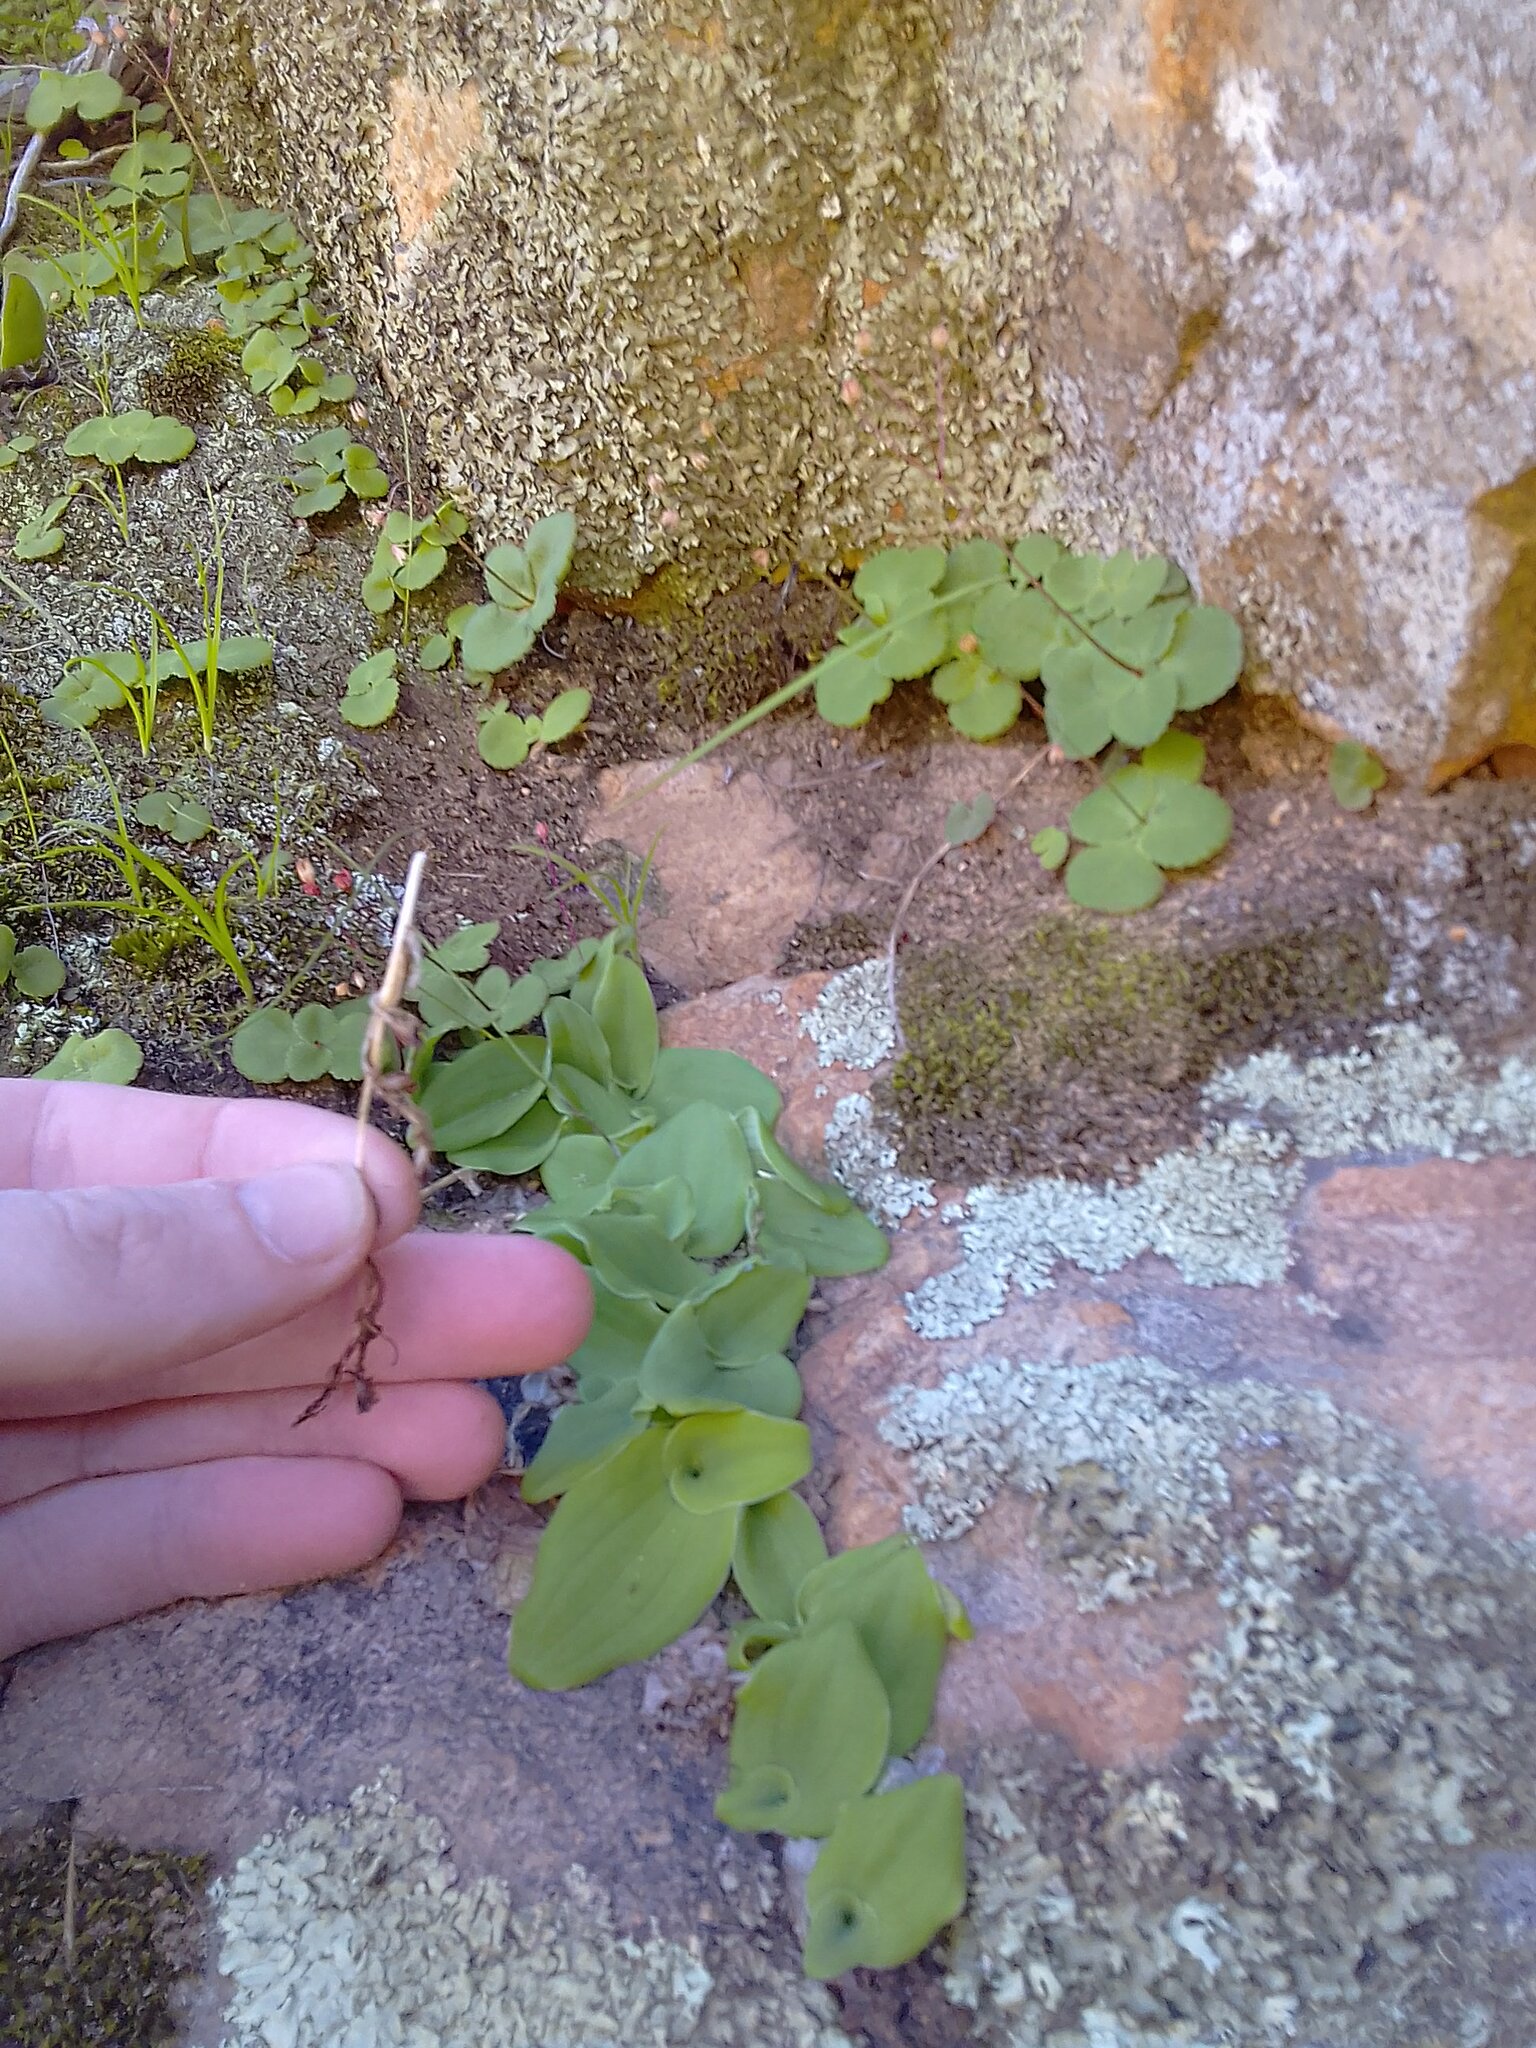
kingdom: Plantae
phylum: Tracheophyta
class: Liliopsida
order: Asparagales
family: Orchidaceae
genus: Satyrium
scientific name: Satyrium pygmaeum
